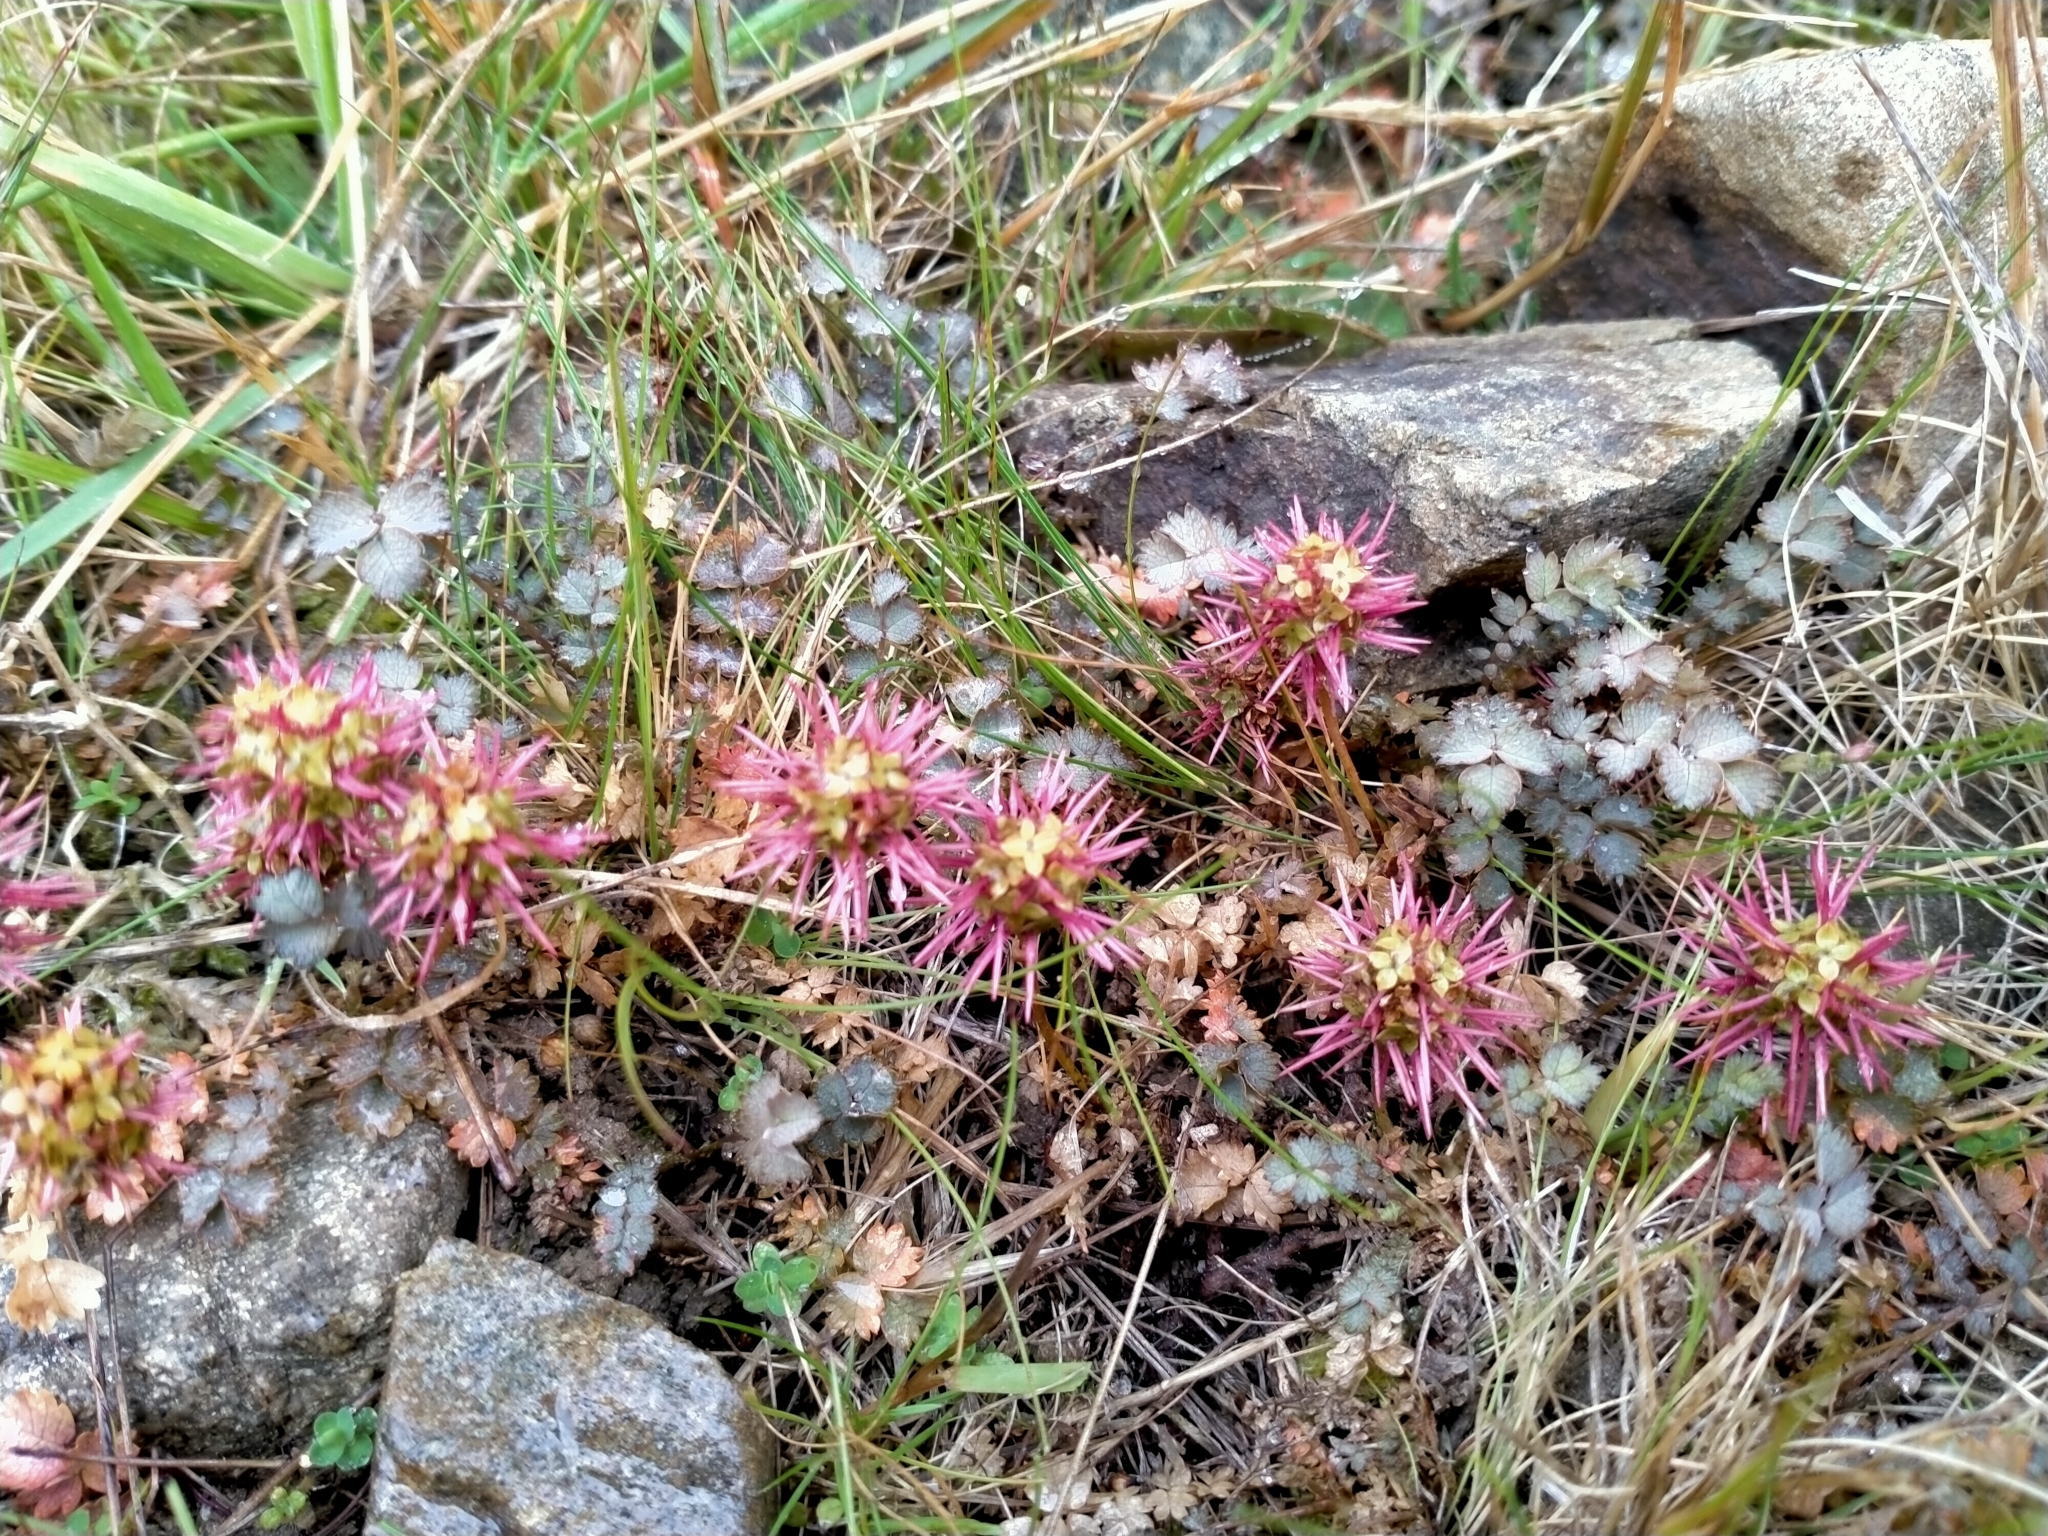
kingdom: Plantae
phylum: Tracheophyta
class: Magnoliopsida
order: Rosales
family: Rosaceae
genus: Acaena
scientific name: Acaena inermis
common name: Spineless acaena
